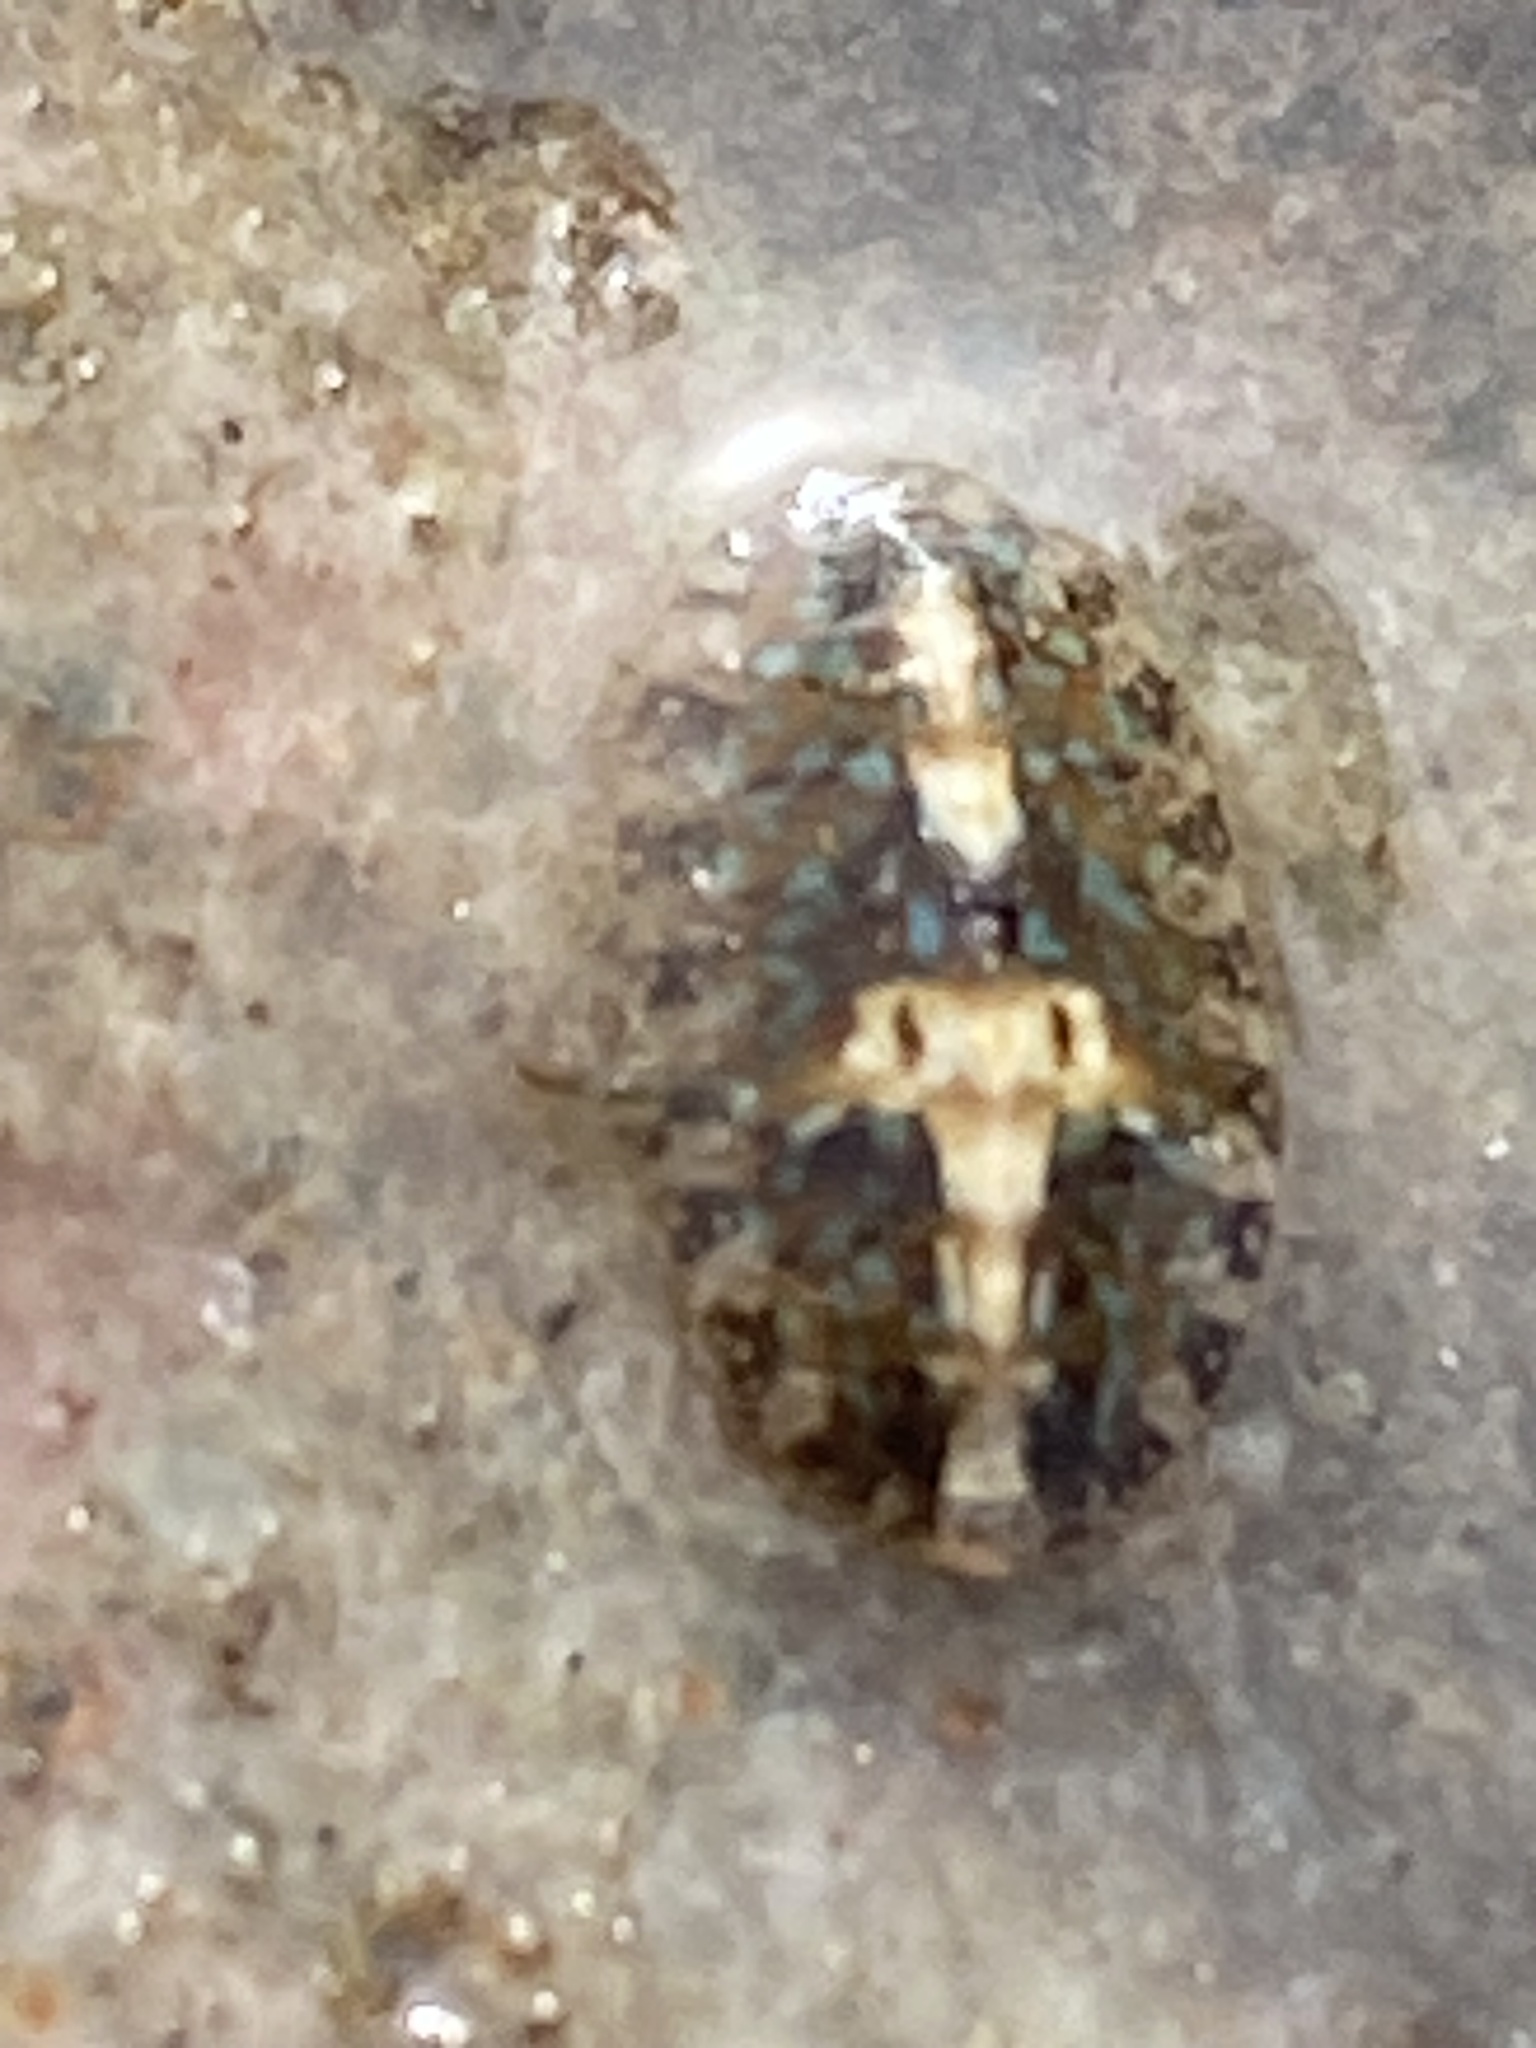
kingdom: Animalia
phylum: Mollusca
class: Polyplacophora
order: Chitonida
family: Tonicellidae
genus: Cyanoplax
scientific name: Cyanoplax dentiens
